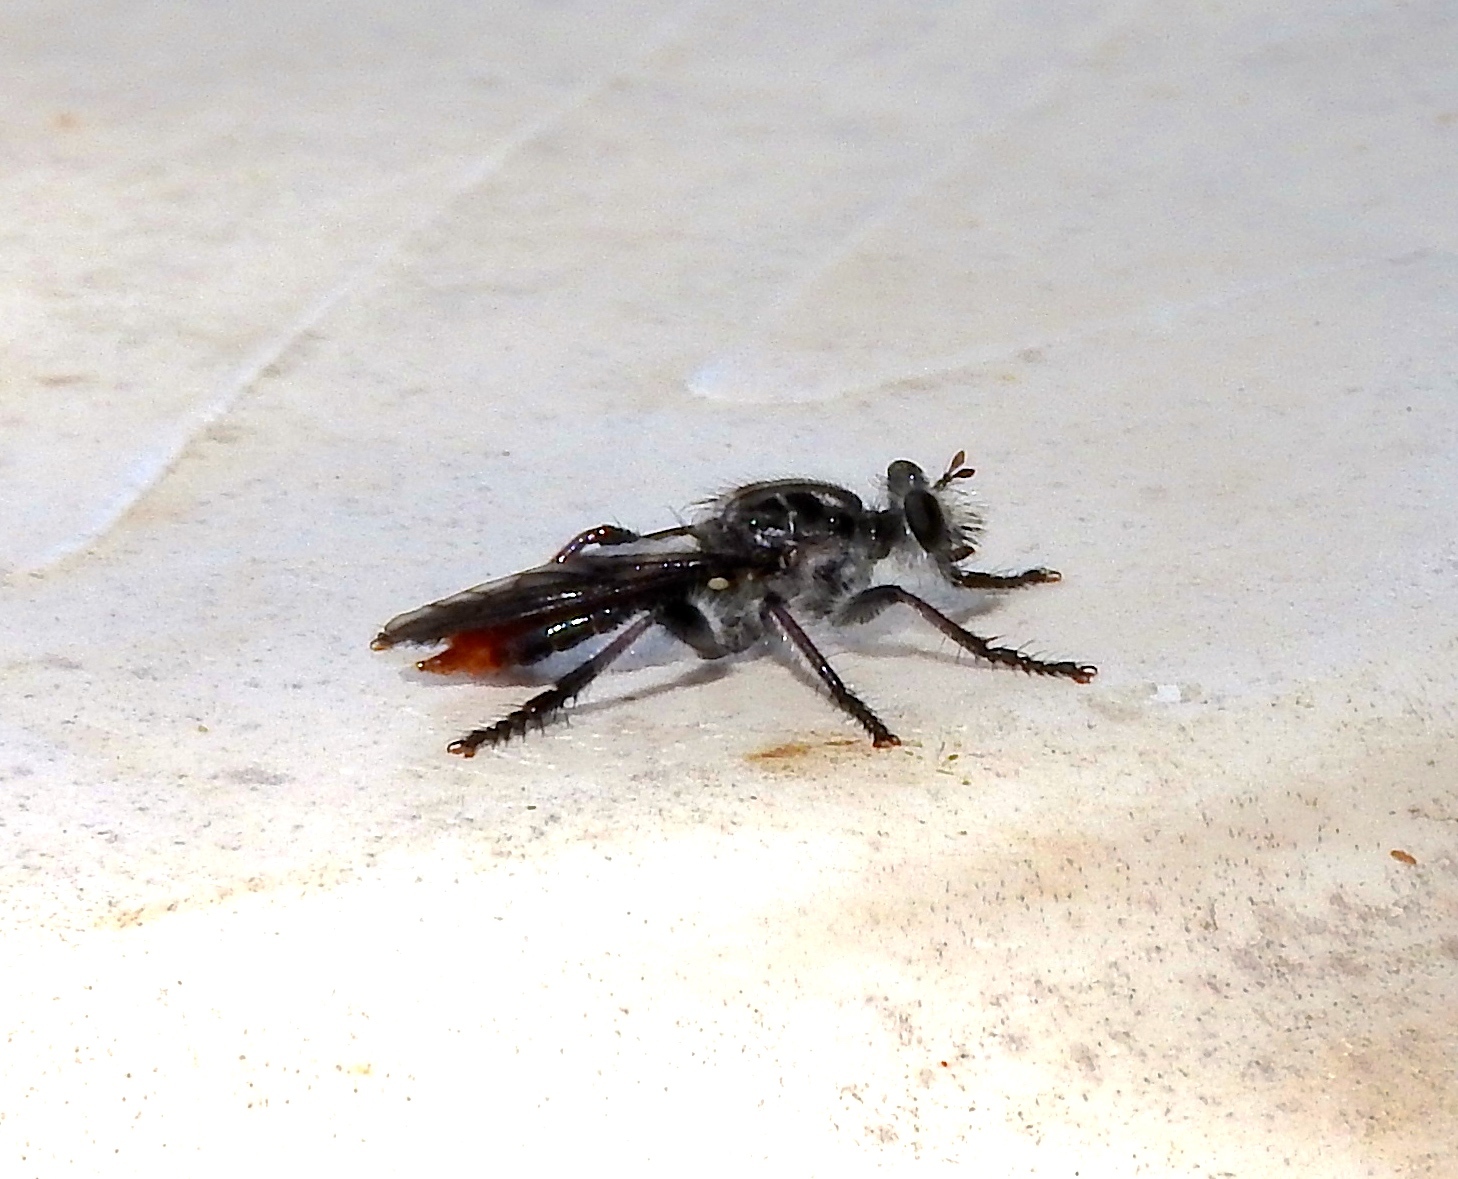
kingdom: Animalia
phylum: Arthropoda
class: Insecta
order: Diptera
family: Asilidae
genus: Andrenosoma
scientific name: Andrenosoma
